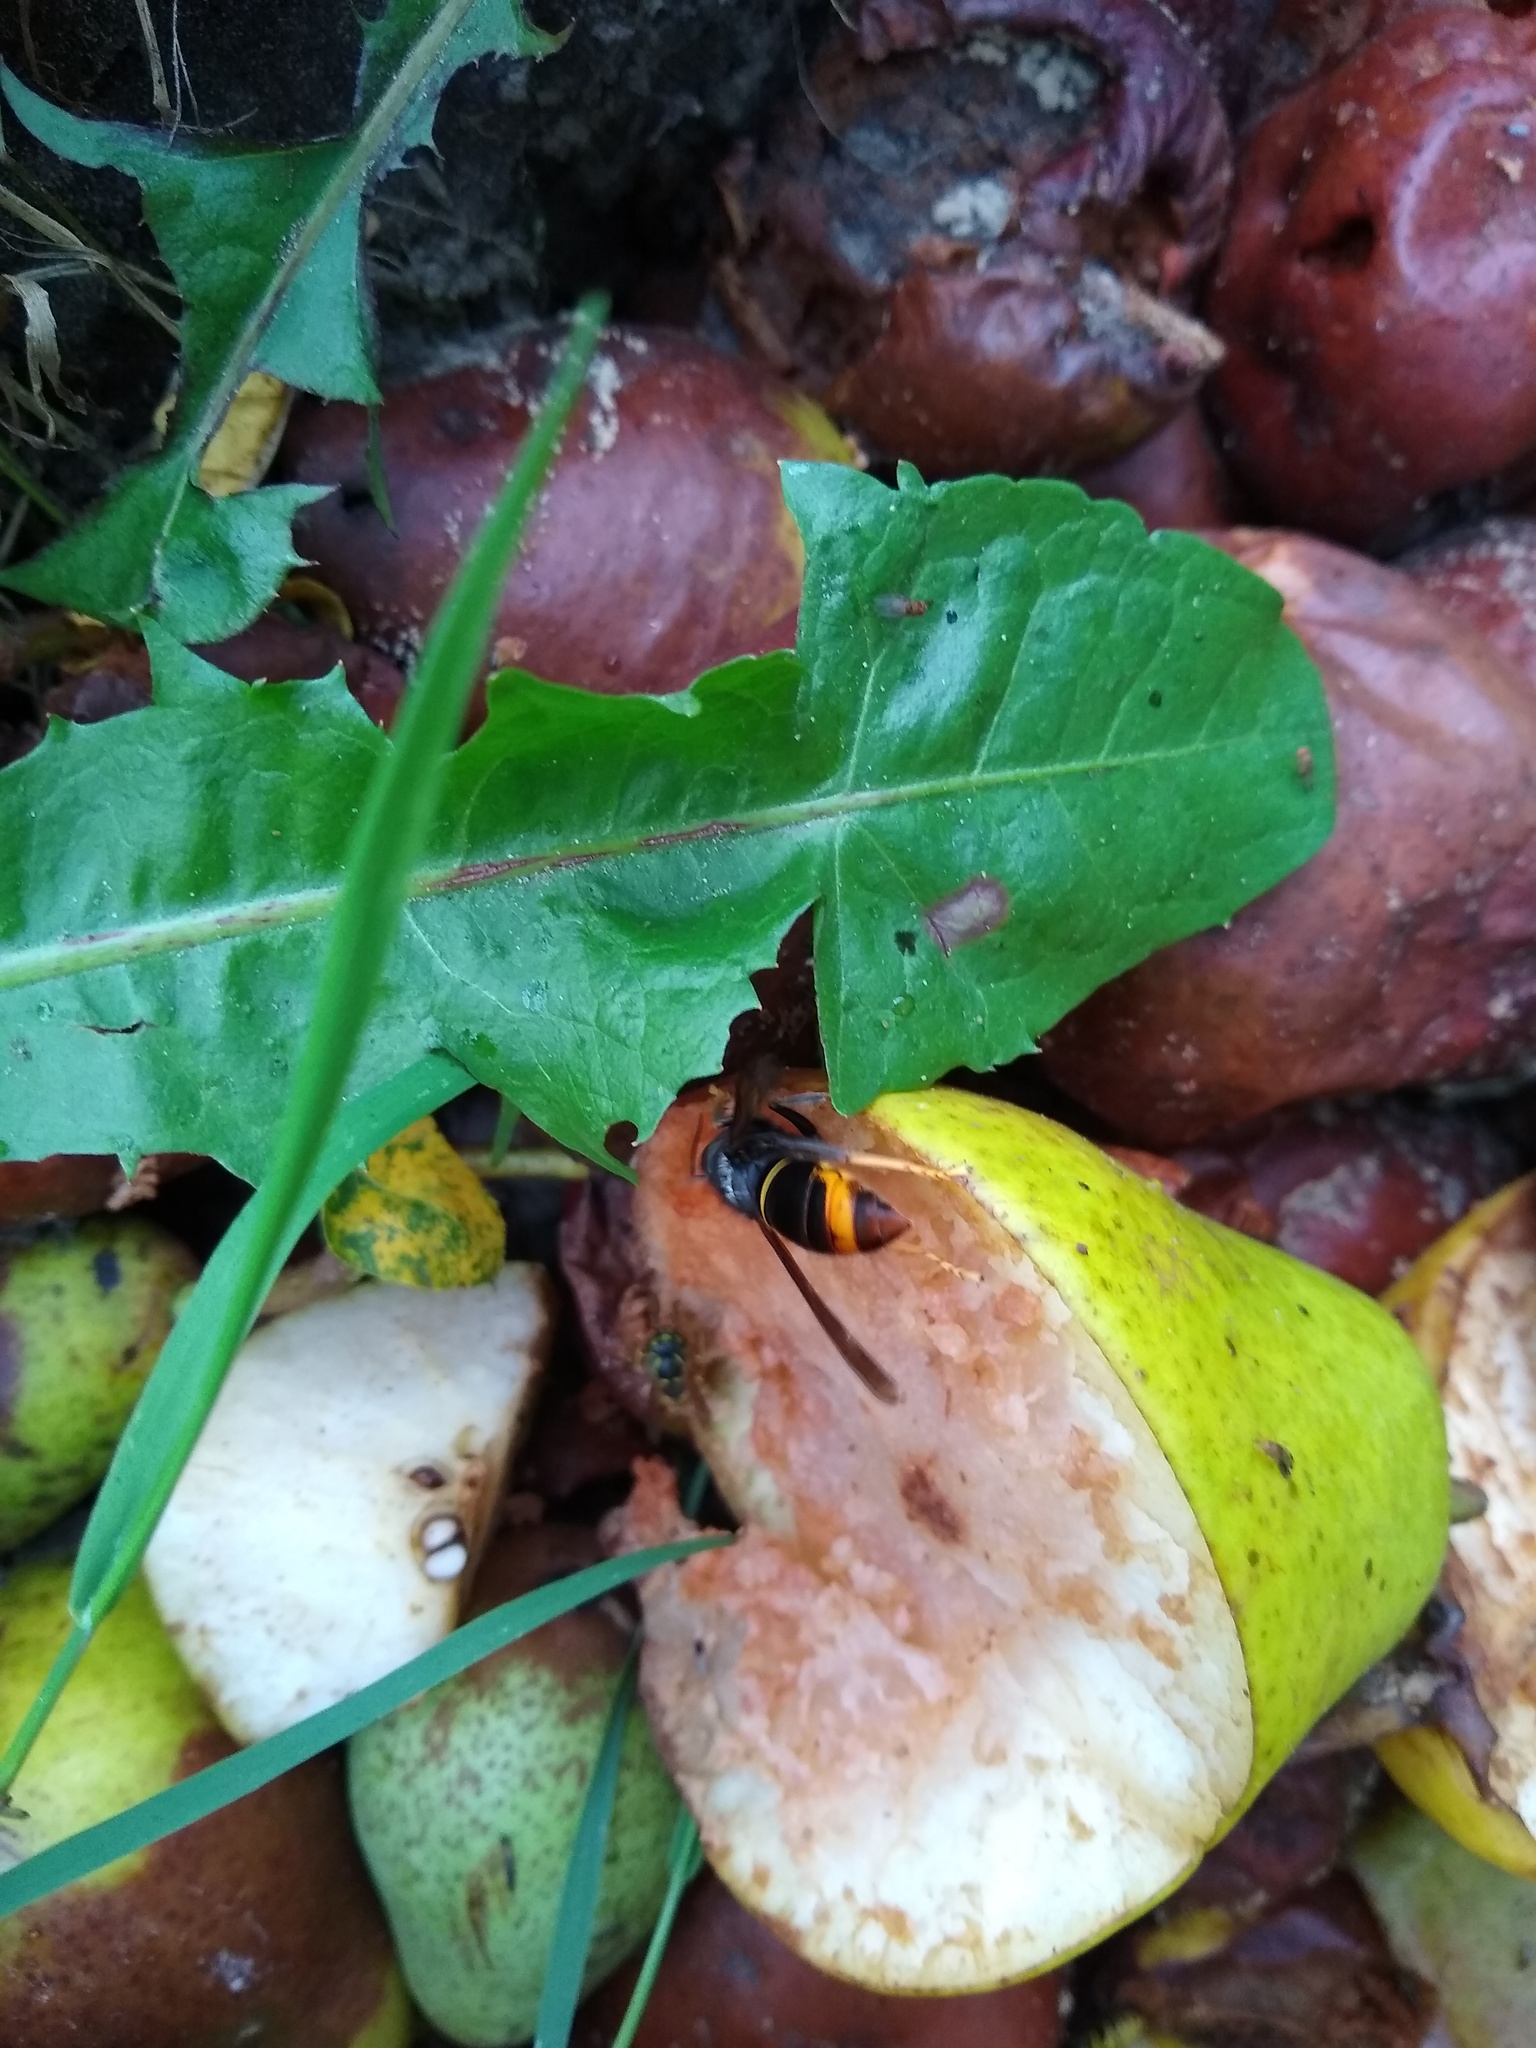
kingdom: Animalia
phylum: Arthropoda
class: Insecta
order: Hymenoptera
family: Vespidae
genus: Vespa
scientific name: Vespa velutina
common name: Asian hornet
